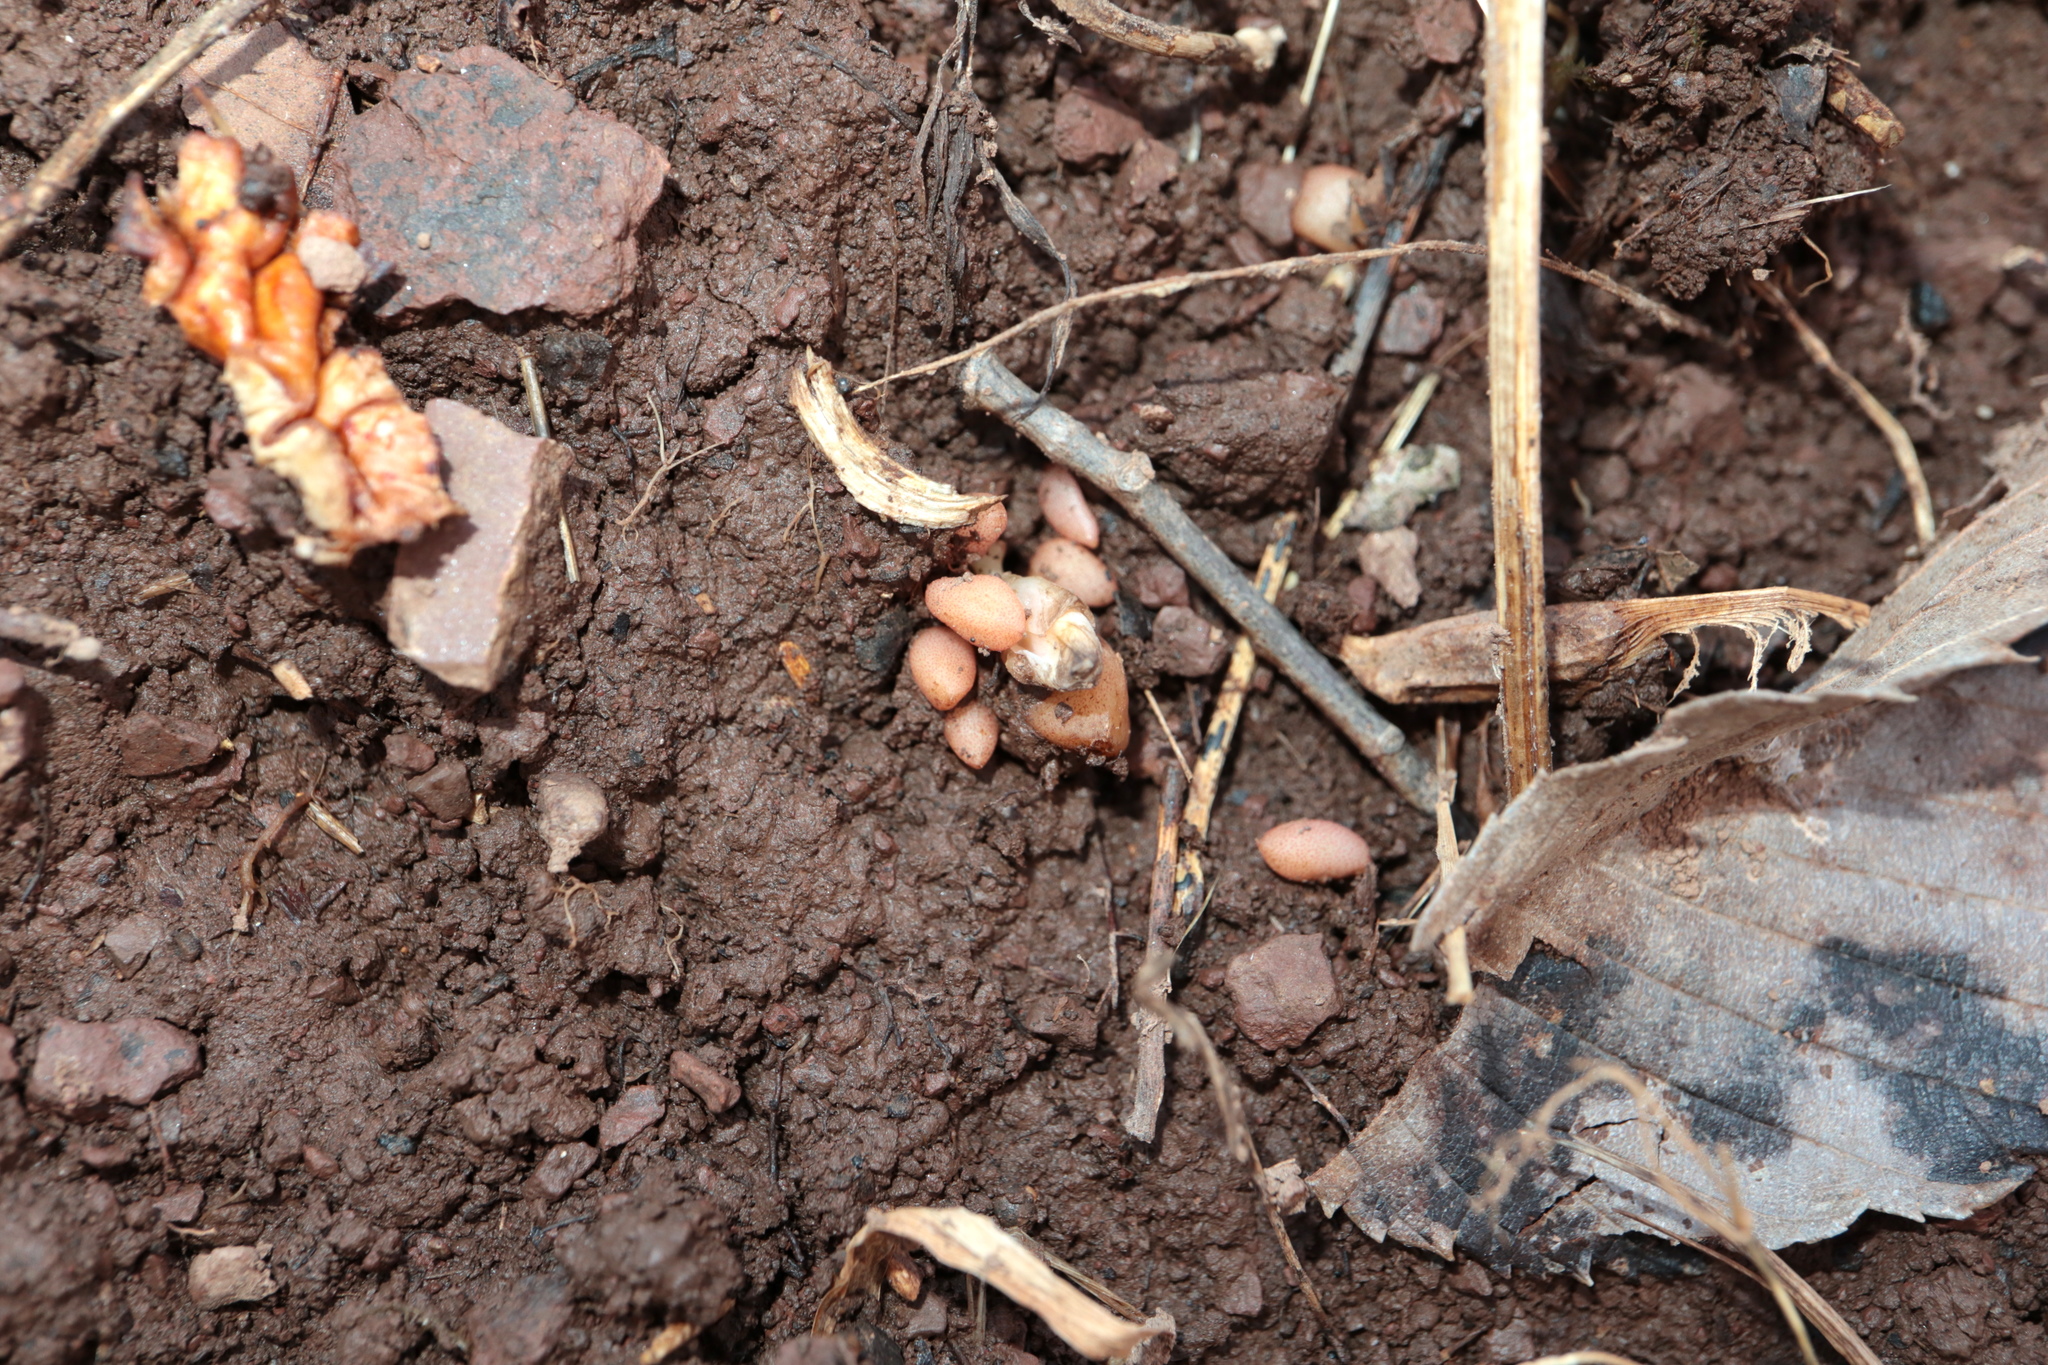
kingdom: Plantae
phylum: Tracheophyta
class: Magnoliopsida
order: Ranunculales
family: Papaveraceae
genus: Dicentra
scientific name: Dicentra cucullaria
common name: Dutchman's breeches
